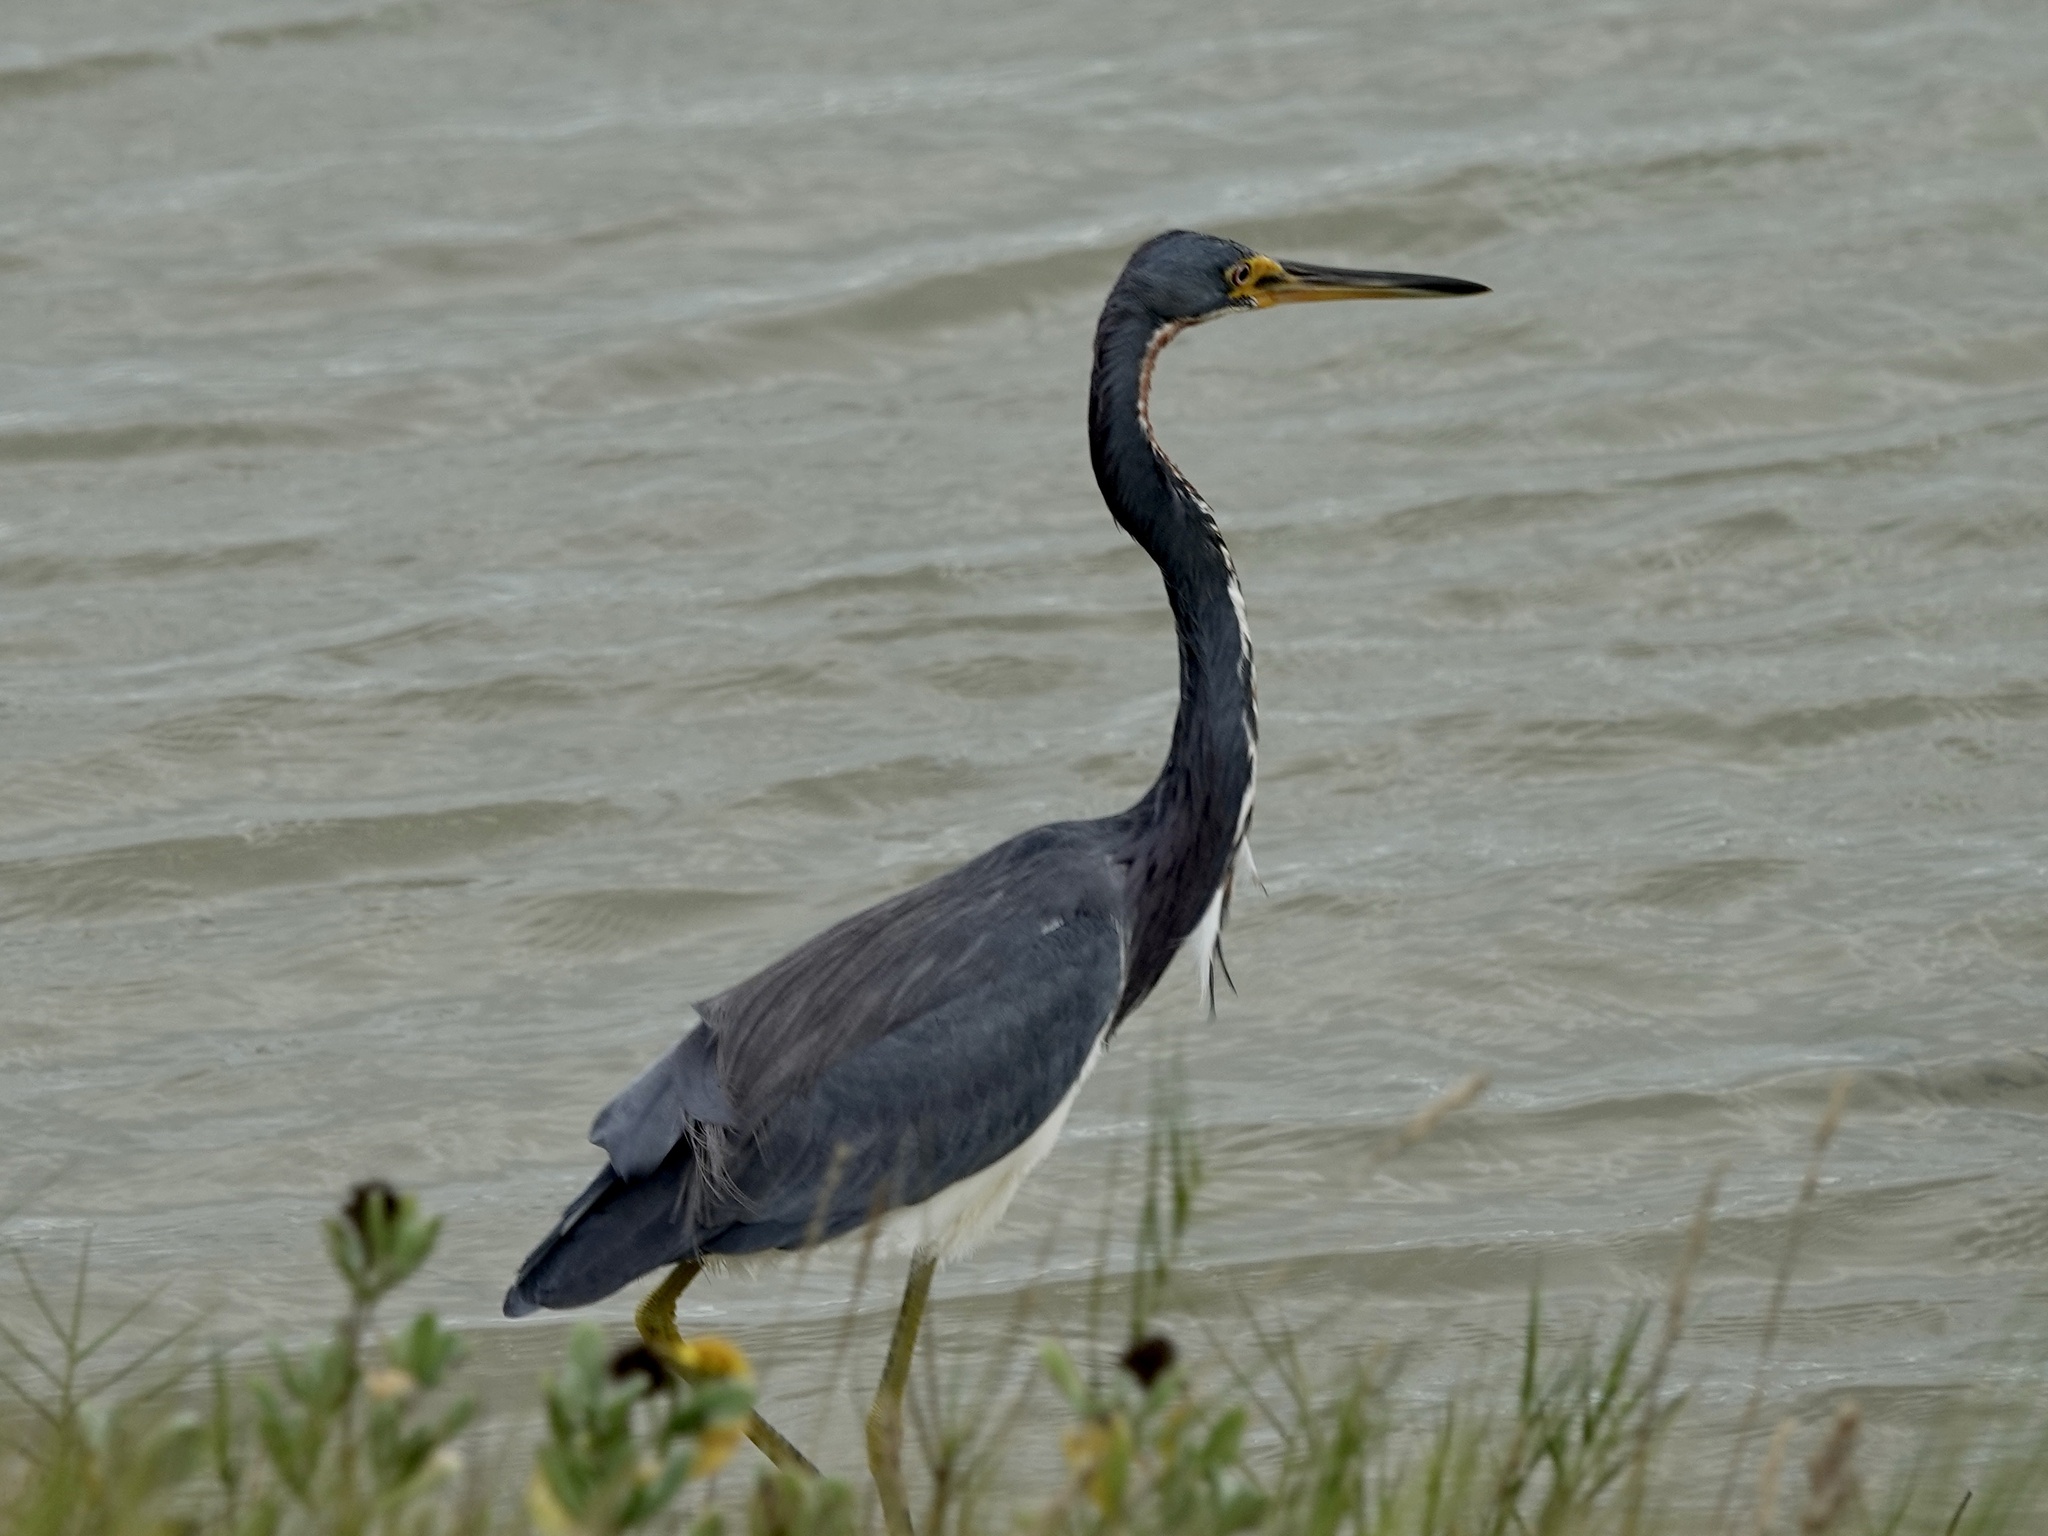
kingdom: Animalia
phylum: Chordata
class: Aves
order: Pelecaniformes
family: Ardeidae
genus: Egretta
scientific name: Egretta tricolor
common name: Tricolored heron
